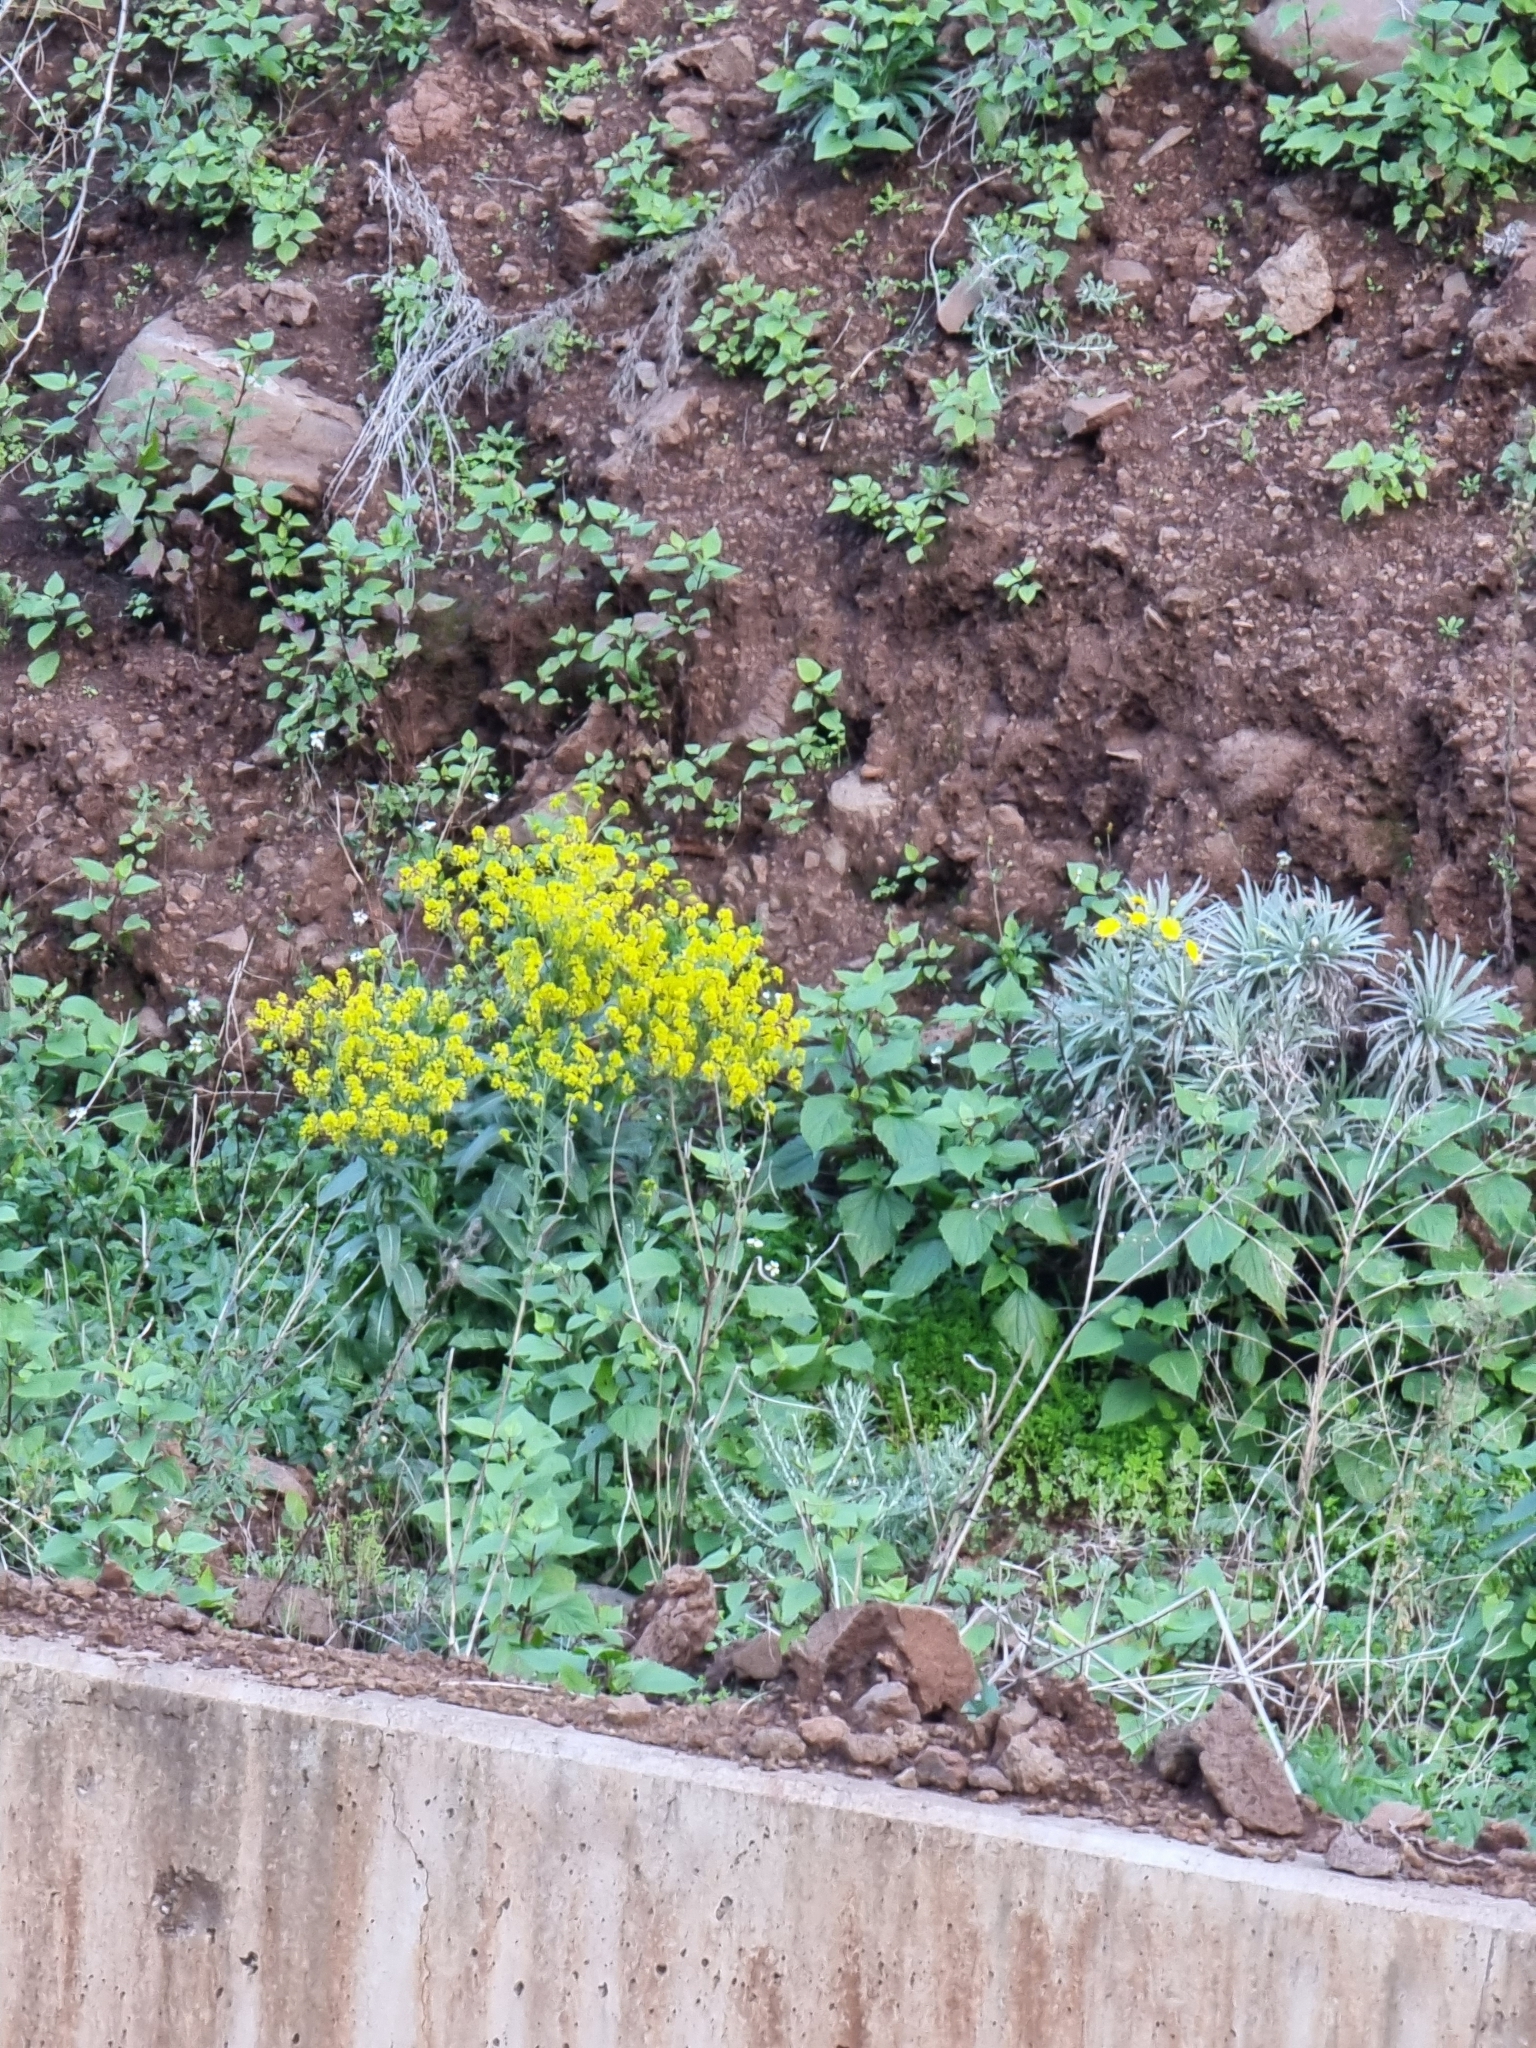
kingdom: Plantae
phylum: Tracheophyta
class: Magnoliopsida
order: Brassicales
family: Brassicaceae
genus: Isatis
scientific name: Isatis tinctoria
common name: Woad
